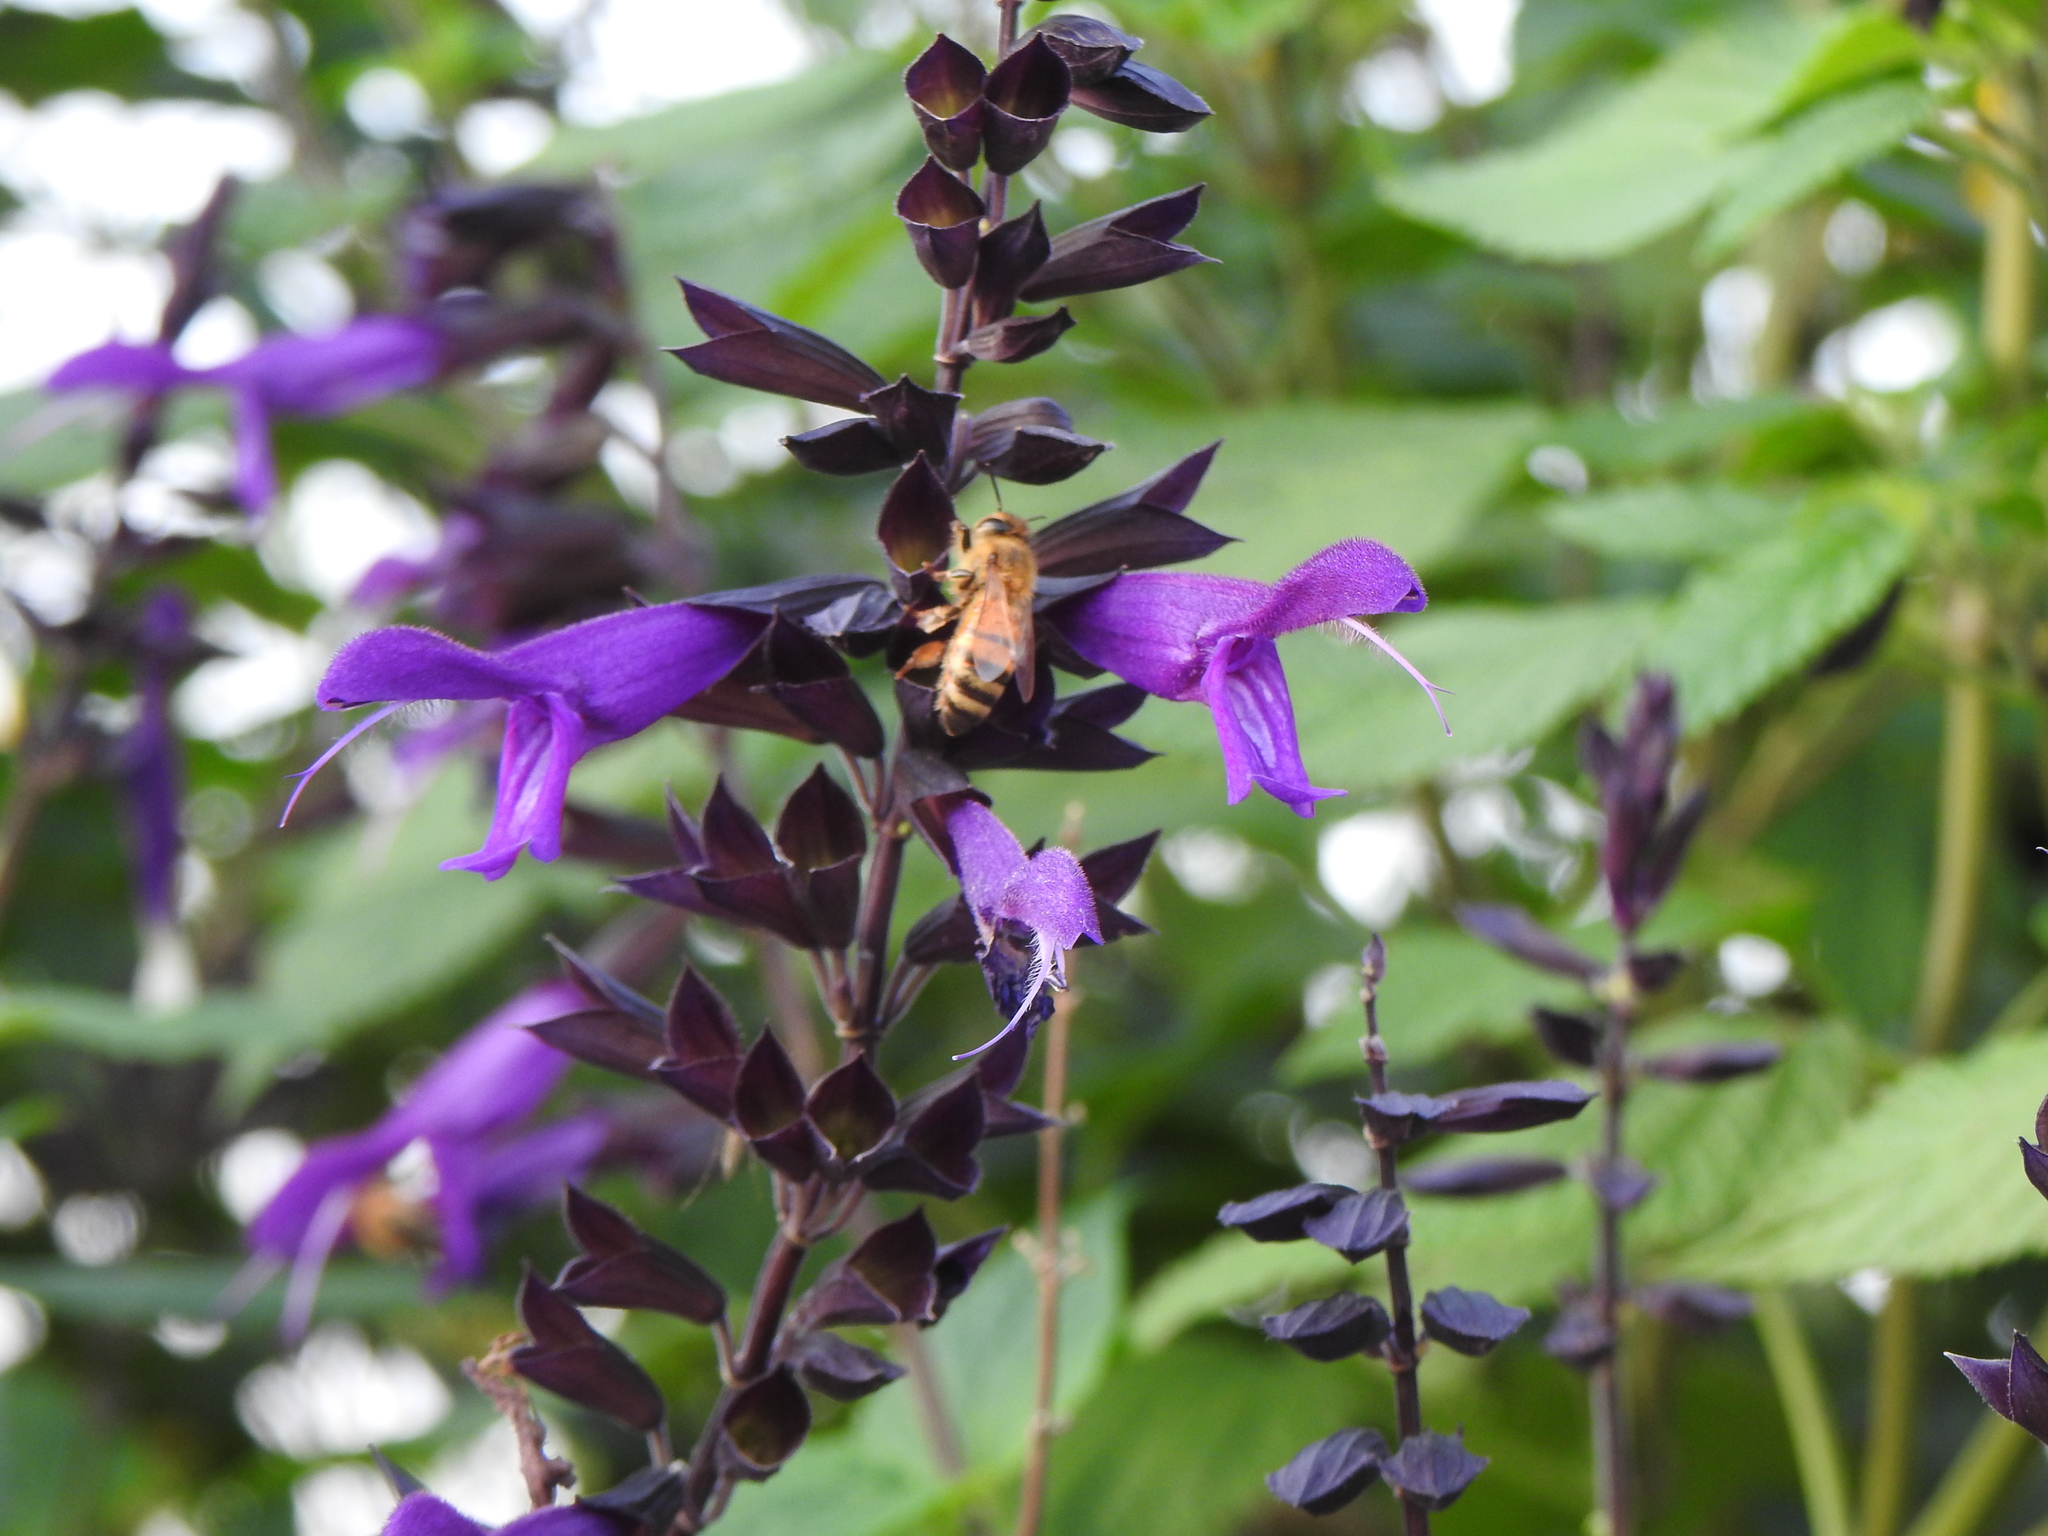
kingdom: Animalia
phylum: Arthropoda
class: Insecta
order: Hymenoptera
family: Apidae
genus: Apis
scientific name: Apis mellifera
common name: Honey bee
